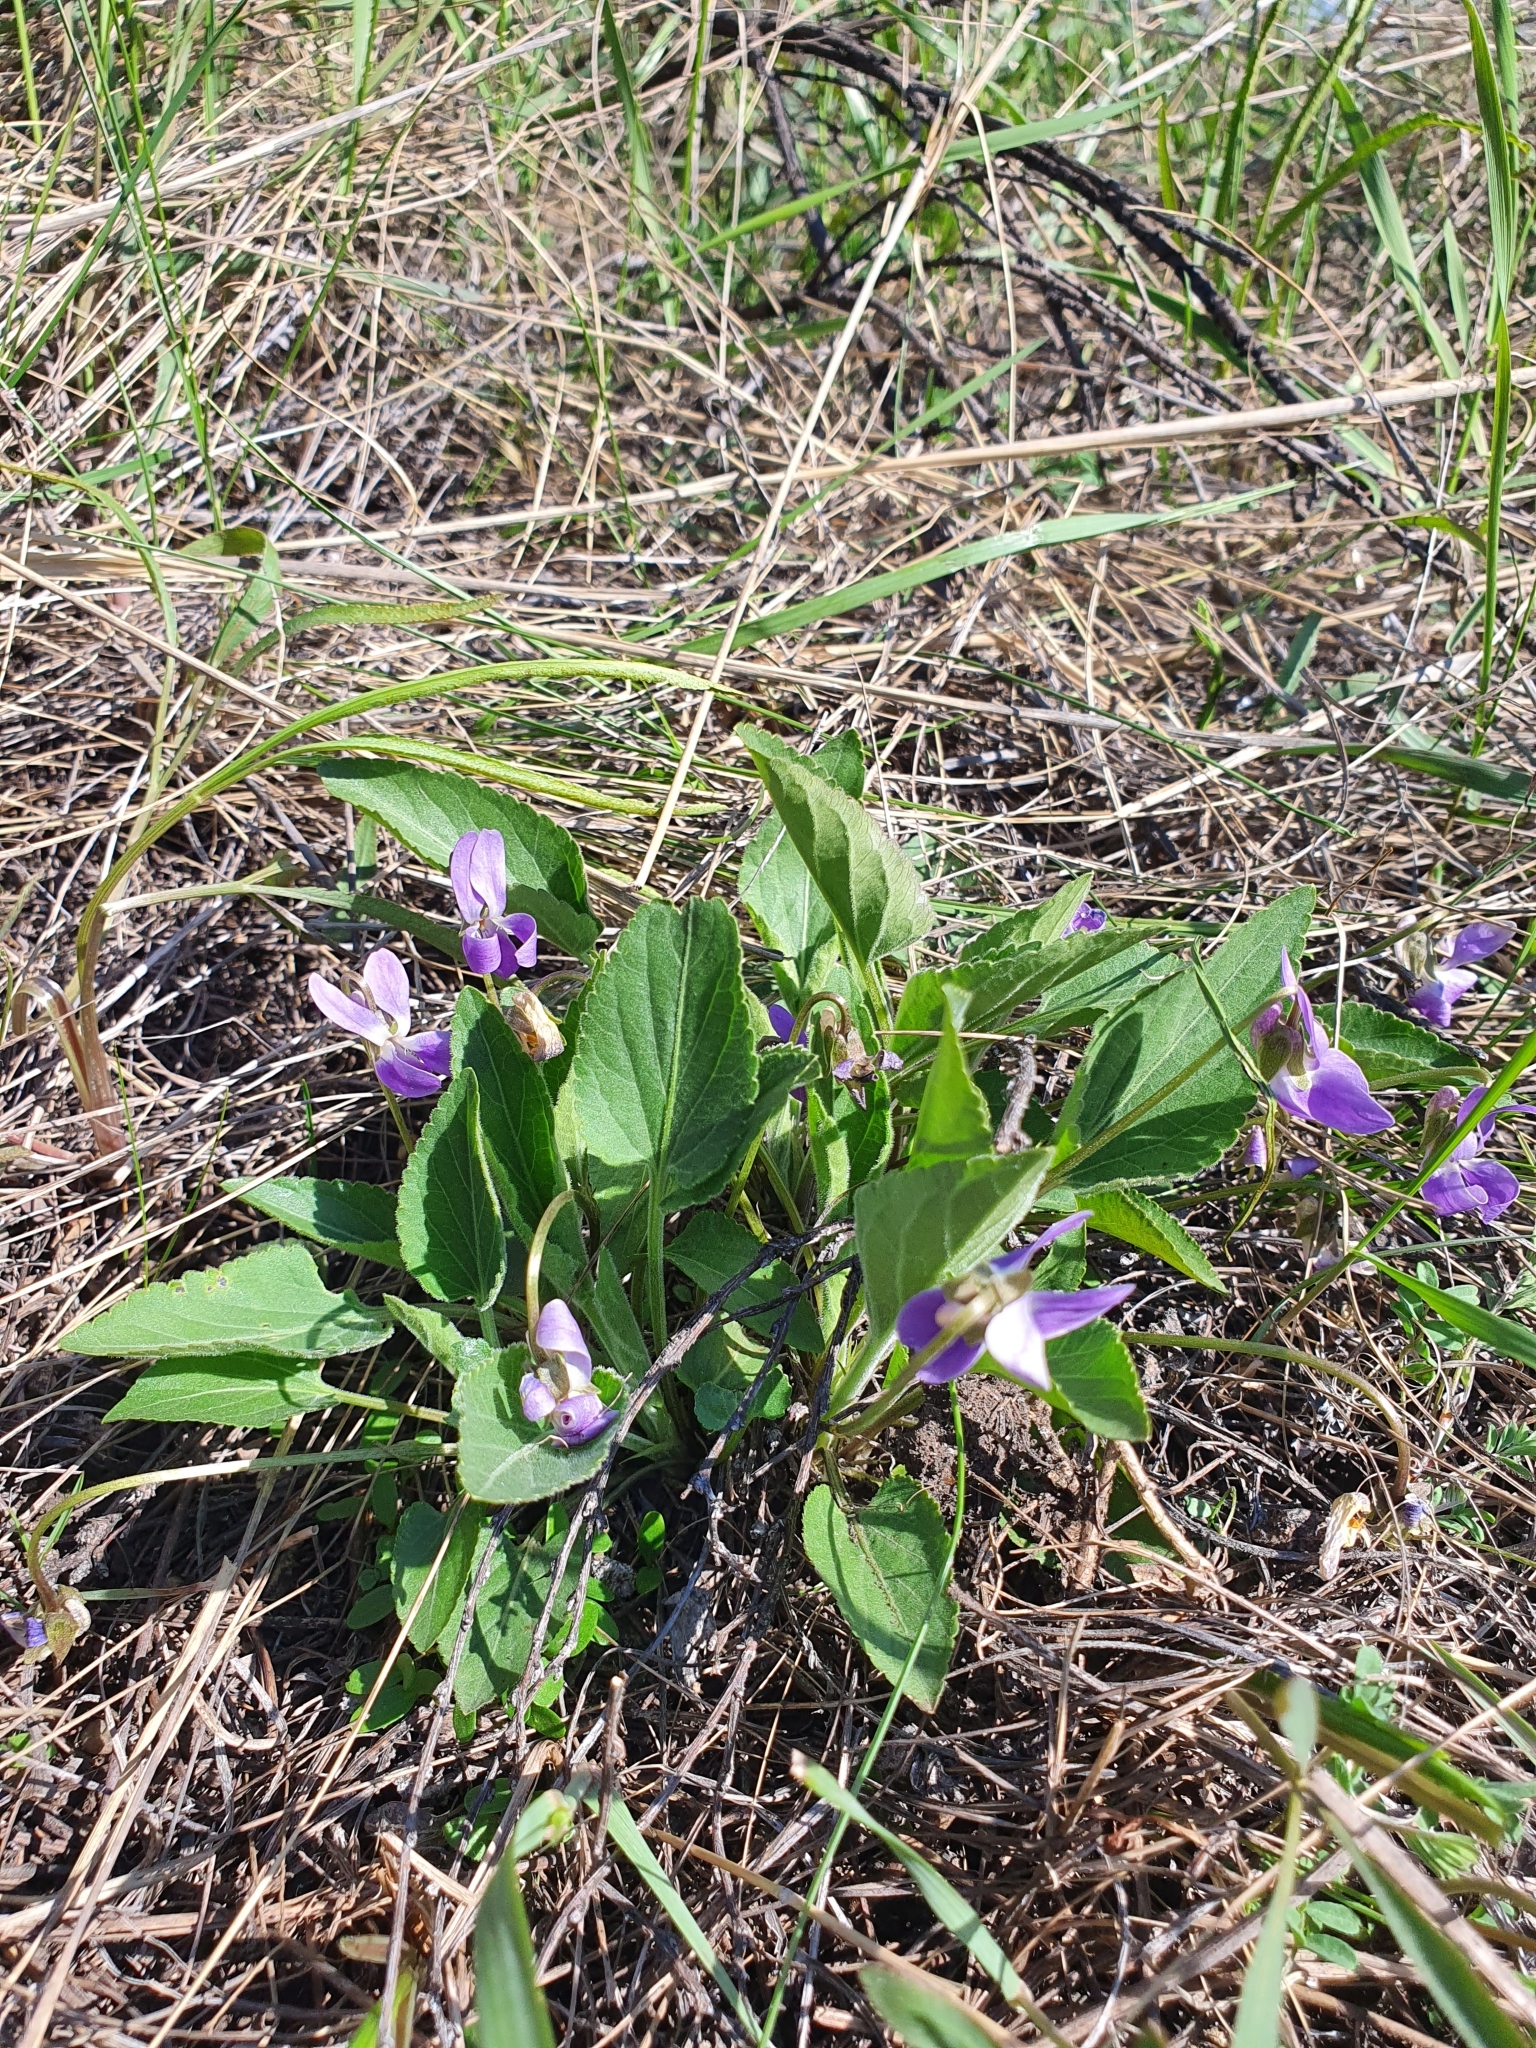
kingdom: Plantae
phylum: Tracheophyta
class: Magnoliopsida
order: Malpighiales
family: Violaceae
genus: Viola
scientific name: Viola ambigua
